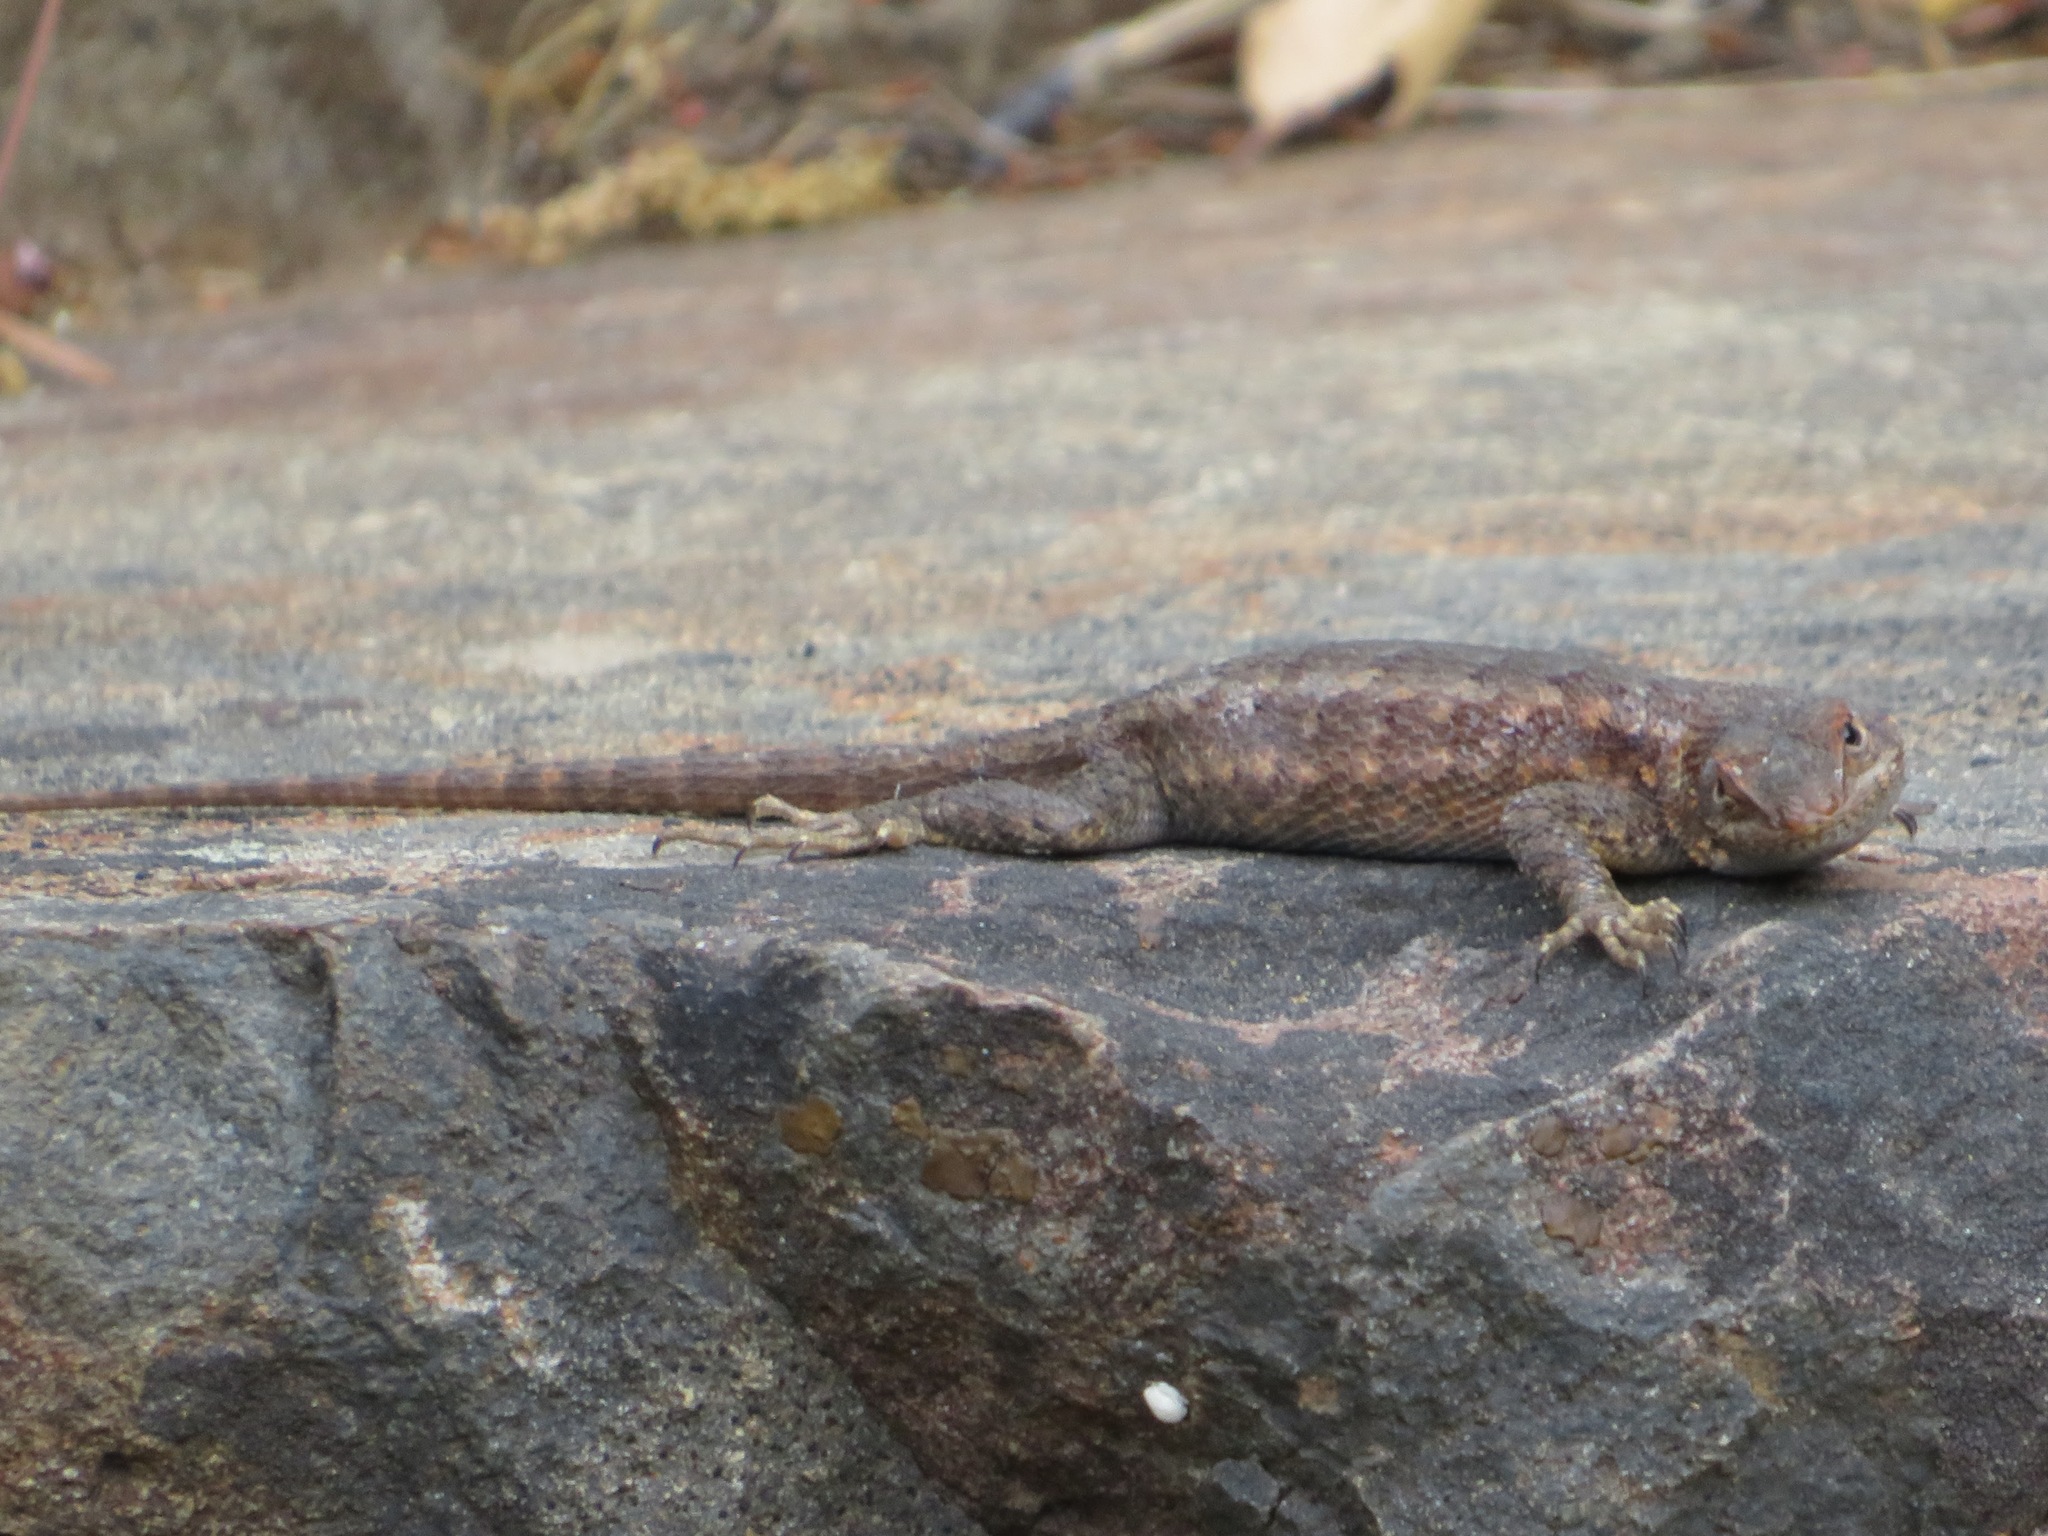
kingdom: Animalia
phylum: Chordata
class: Squamata
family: Phrynosomatidae
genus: Sceloporus
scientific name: Sceloporus occidentalis
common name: Western fence lizard
